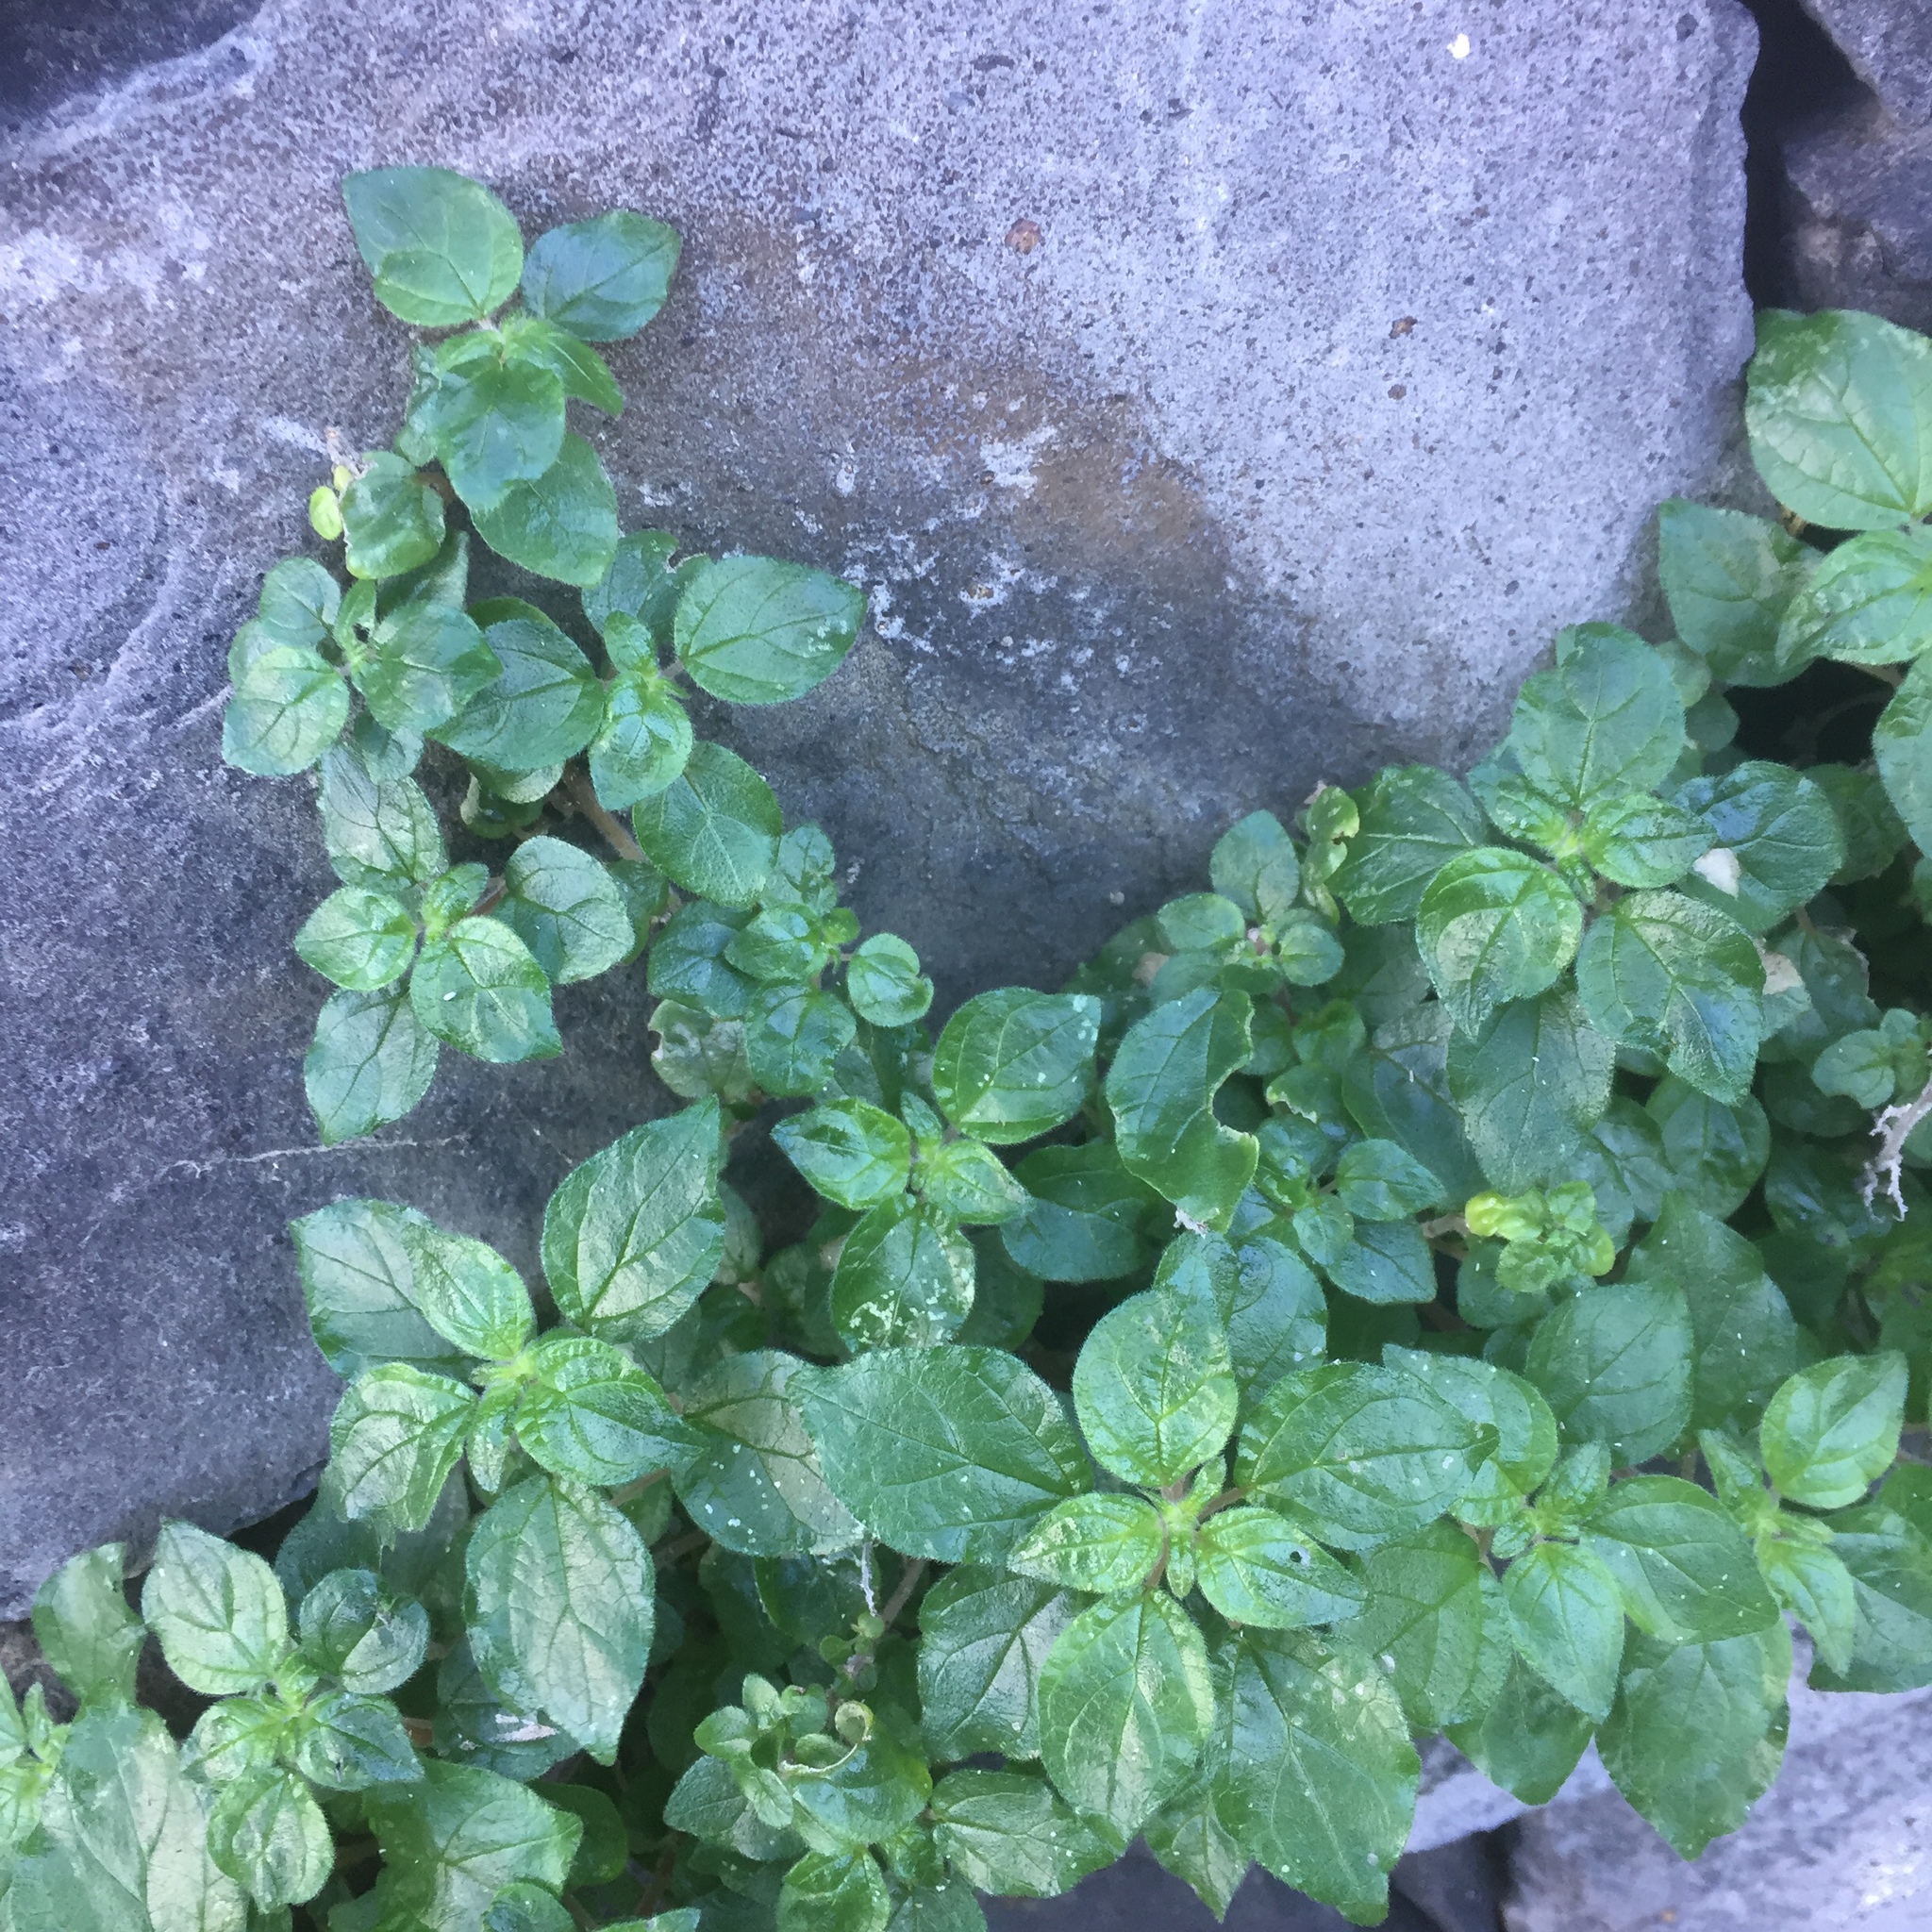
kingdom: Plantae
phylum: Tracheophyta
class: Magnoliopsida
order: Rosales
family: Urticaceae
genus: Parietaria
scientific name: Parietaria judaica
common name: Pellitory-of-the-wall
